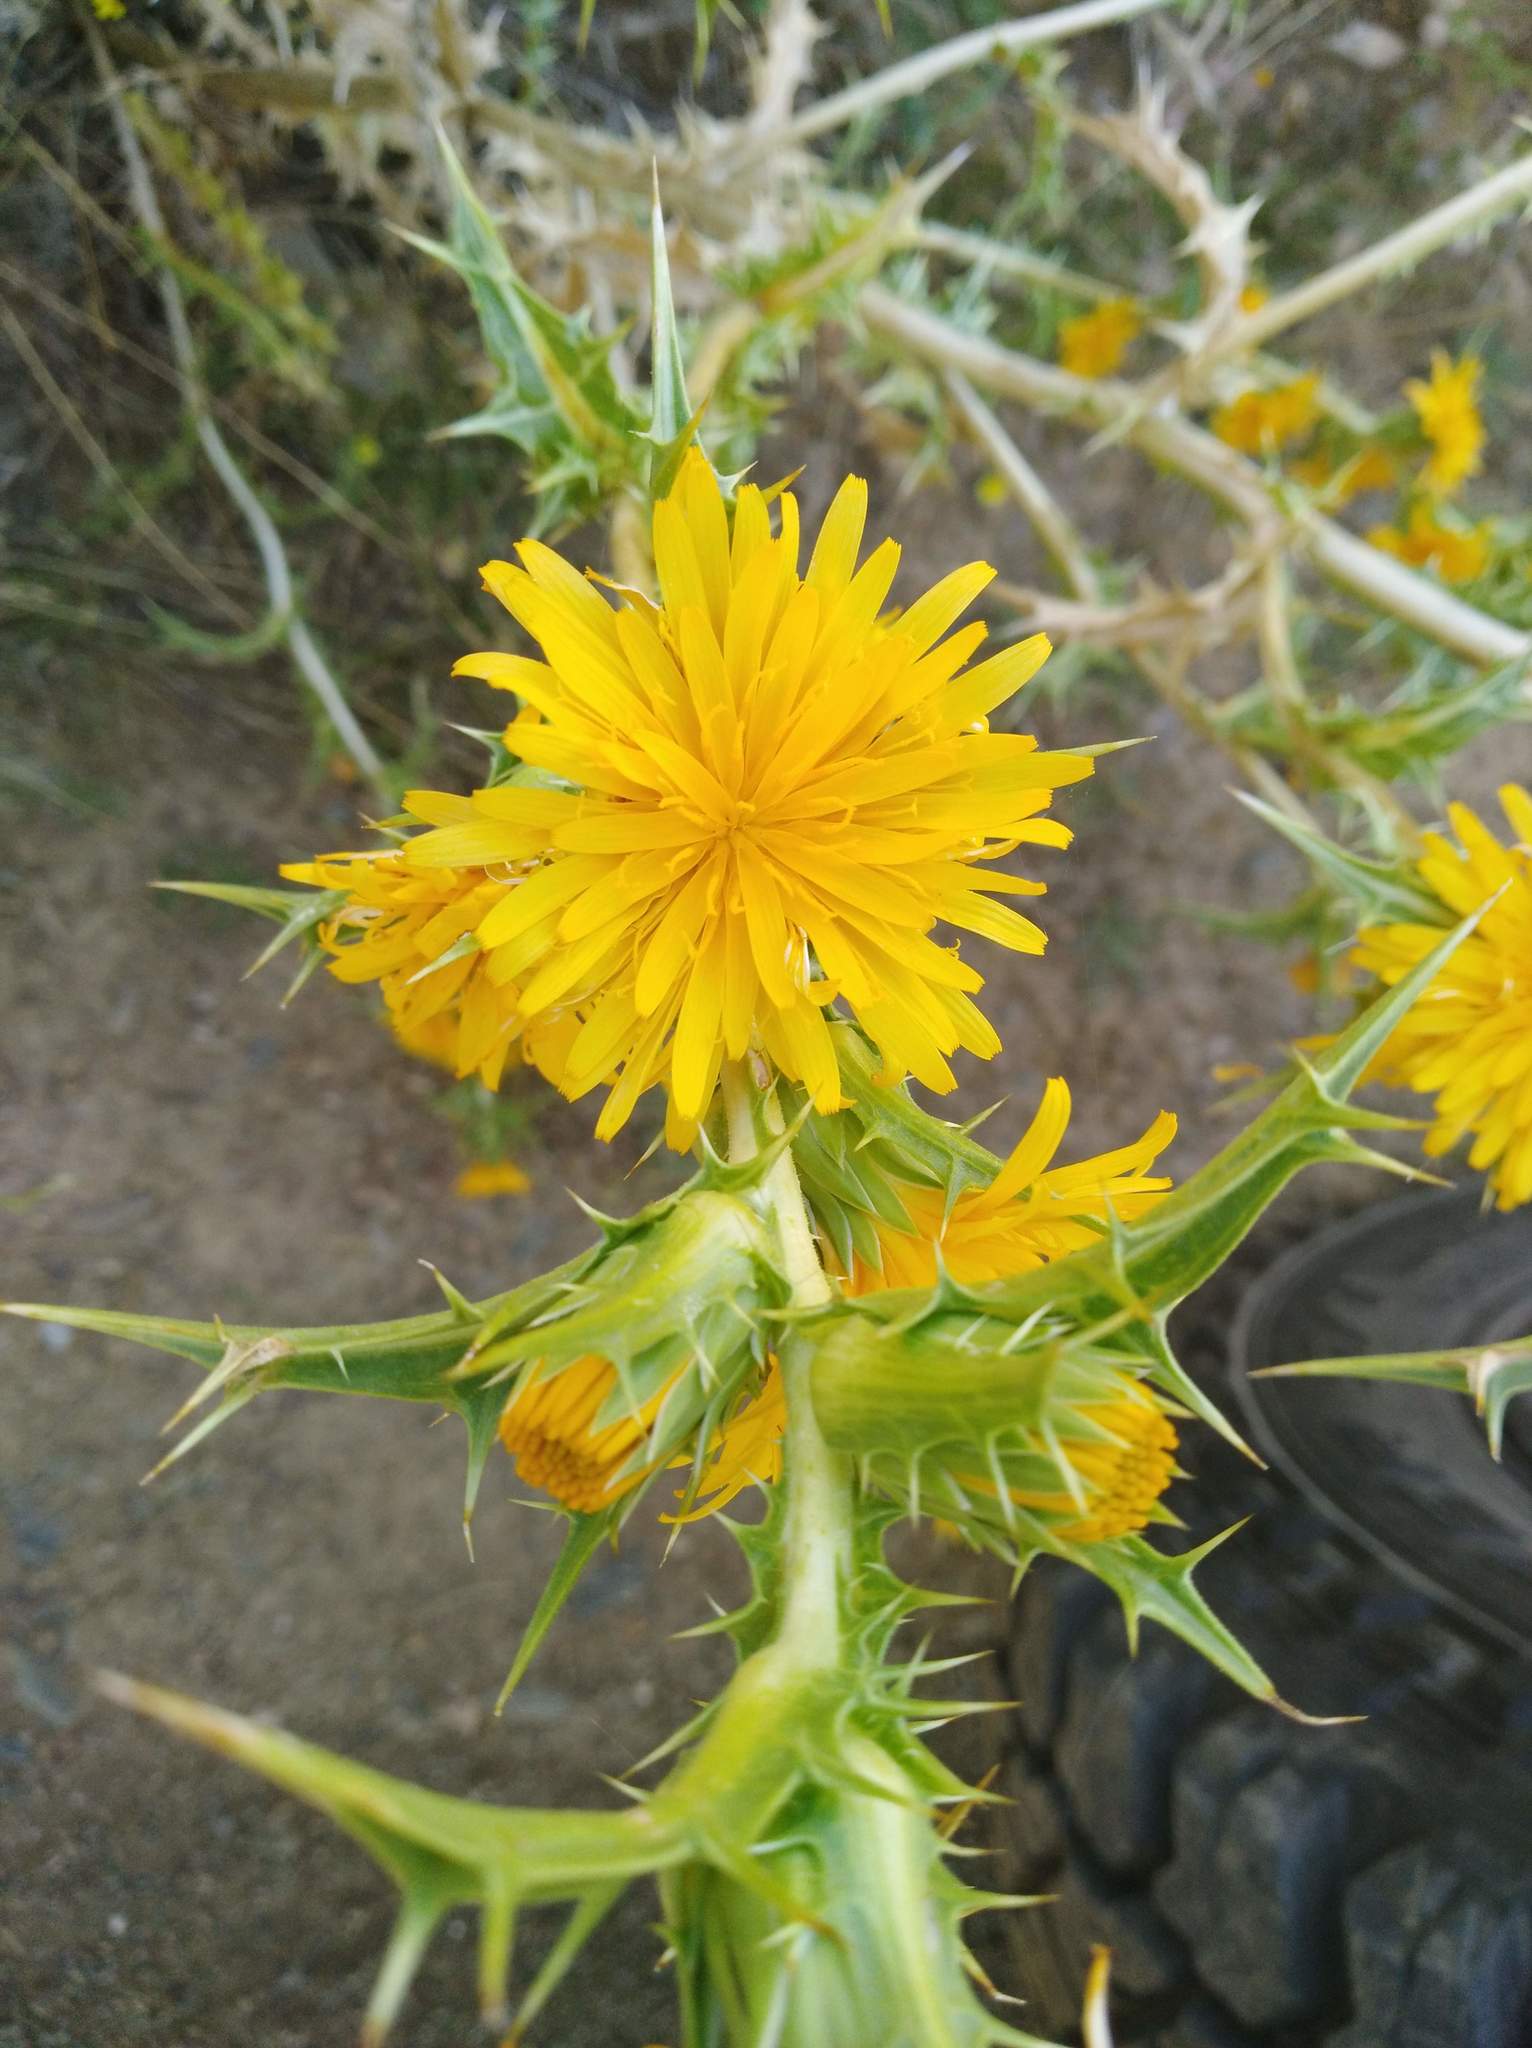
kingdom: Plantae
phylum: Tracheophyta
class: Magnoliopsida
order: Asterales
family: Asteraceae
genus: Scolymus
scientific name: Scolymus hispanicus
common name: Golden thistle
